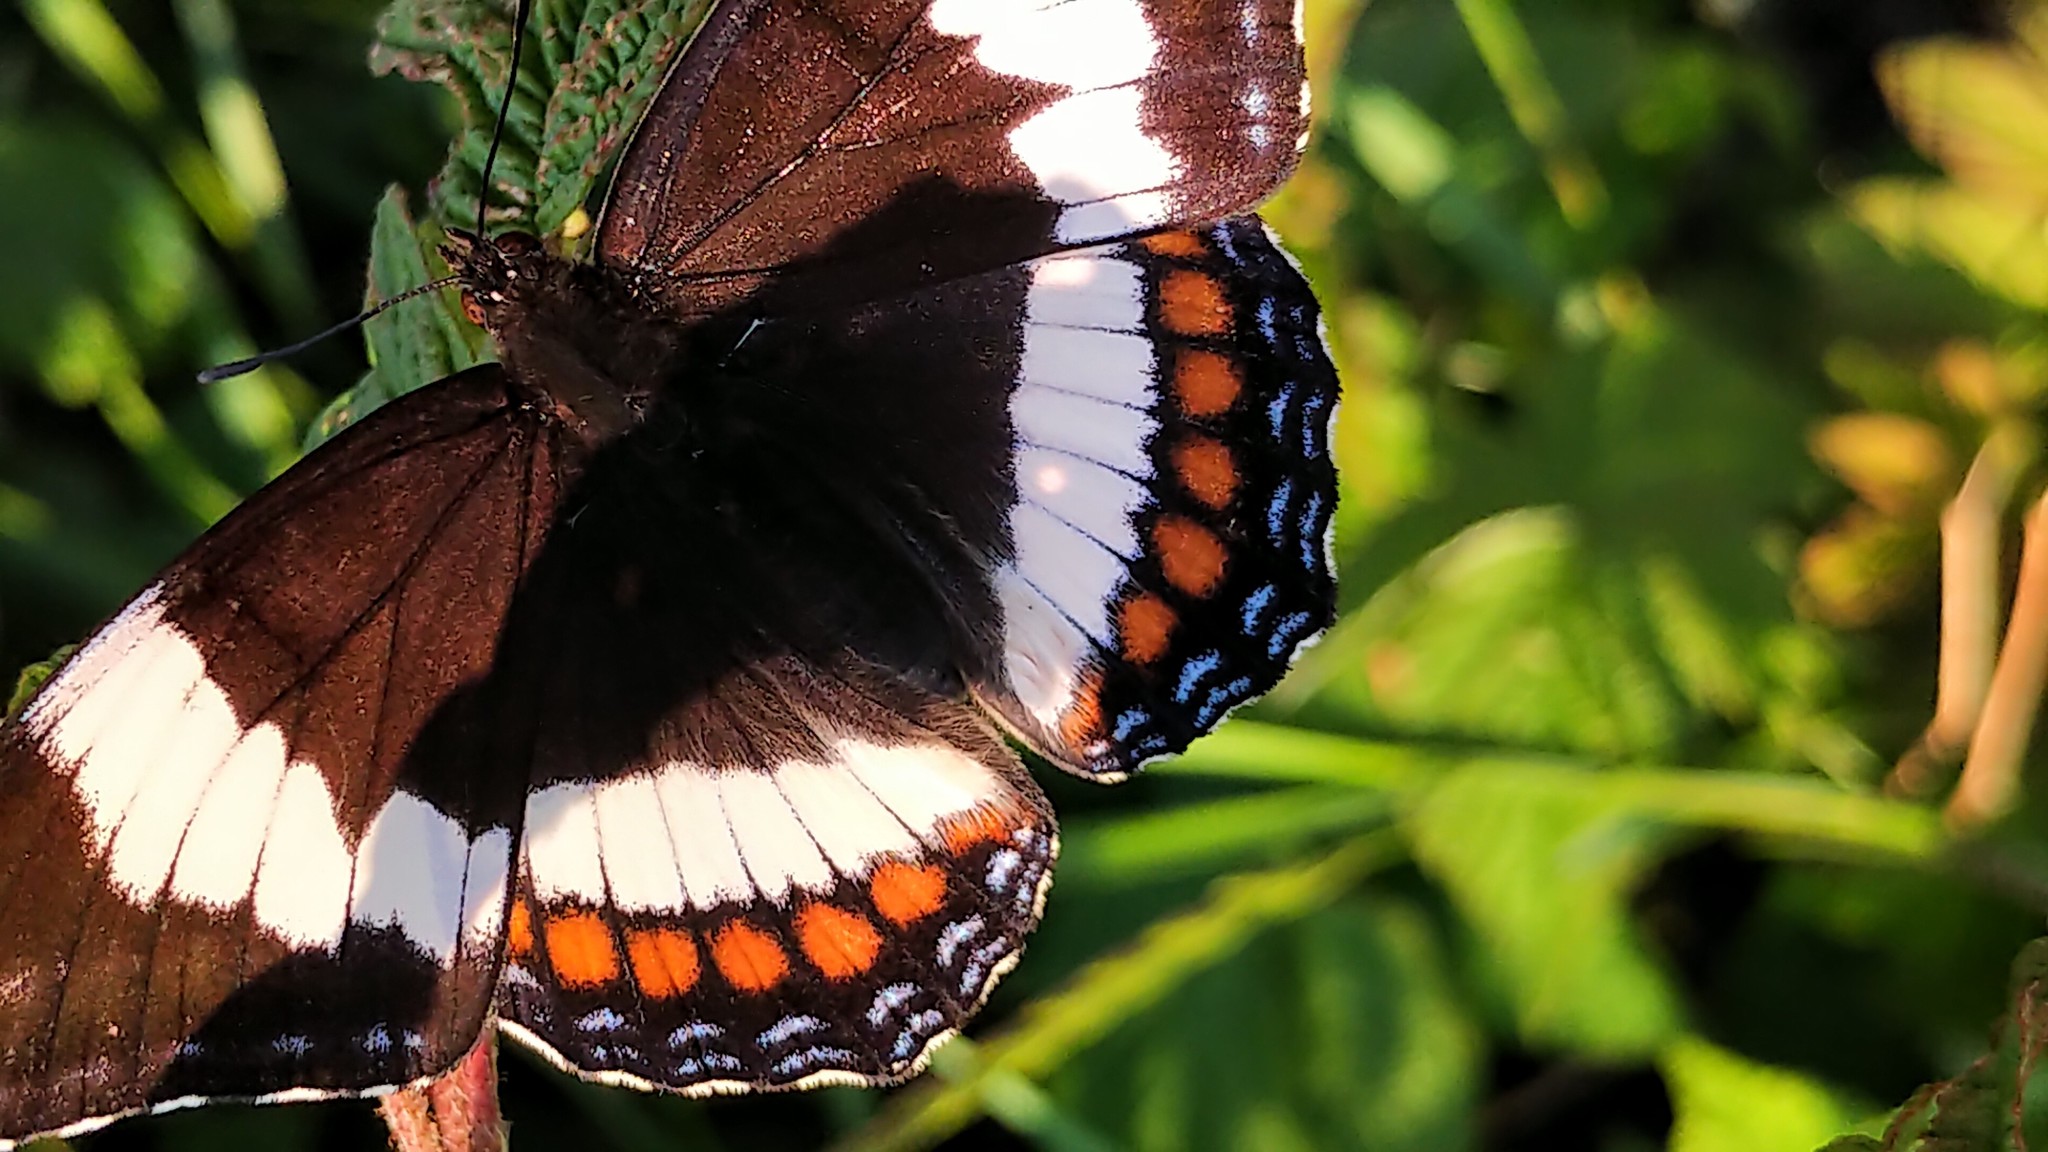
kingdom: Animalia
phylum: Arthropoda
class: Insecta
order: Lepidoptera
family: Nymphalidae
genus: Limenitis
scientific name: Limenitis arthemis
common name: Red-spotted admiral
